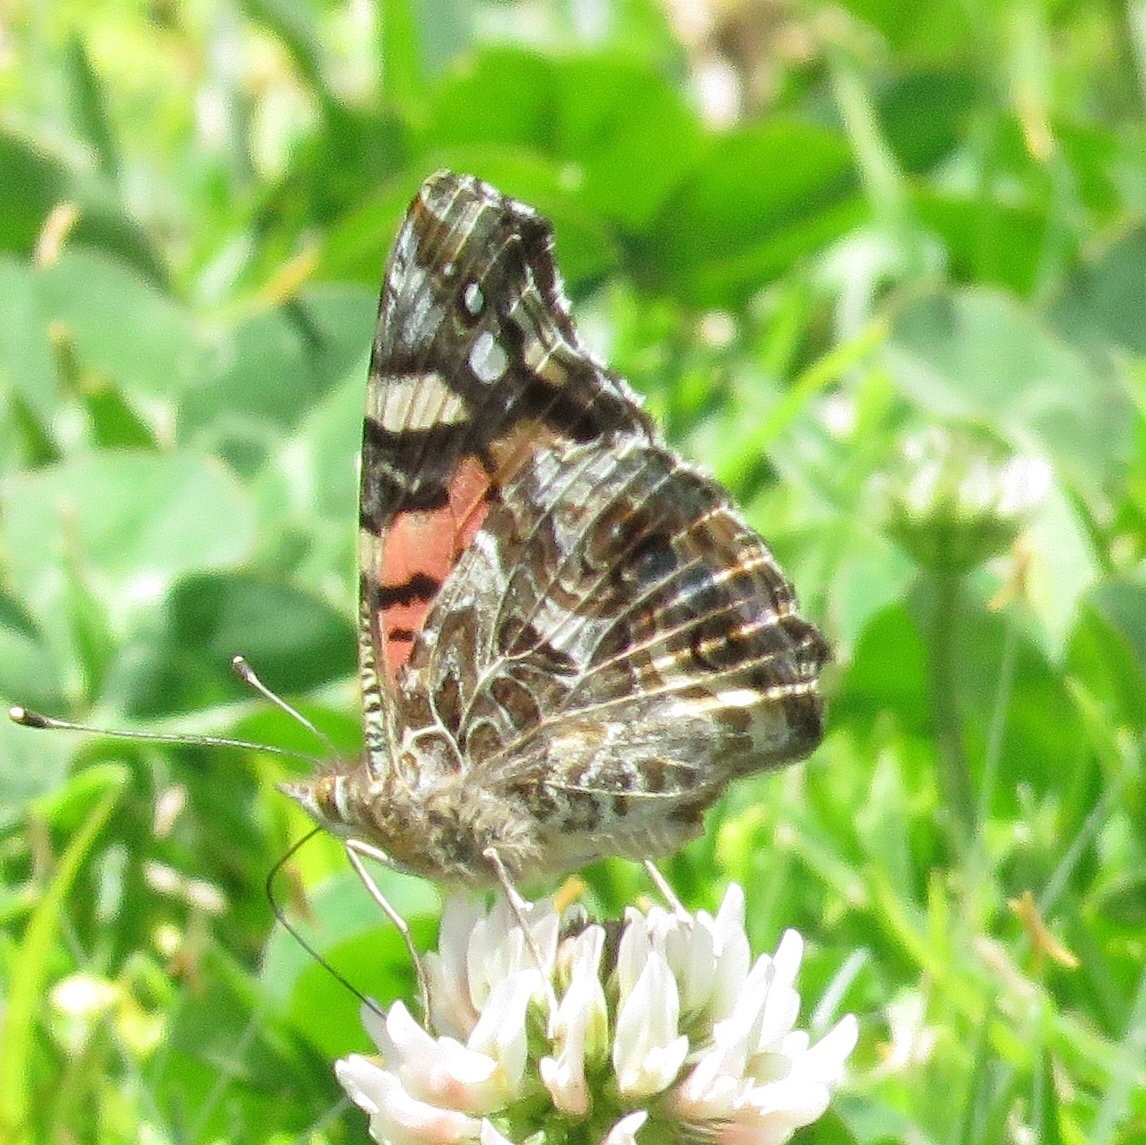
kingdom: Animalia
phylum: Arthropoda
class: Insecta
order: Lepidoptera
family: Nymphalidae
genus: Vanessa
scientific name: Vanessa carye
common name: Subtropical lady
